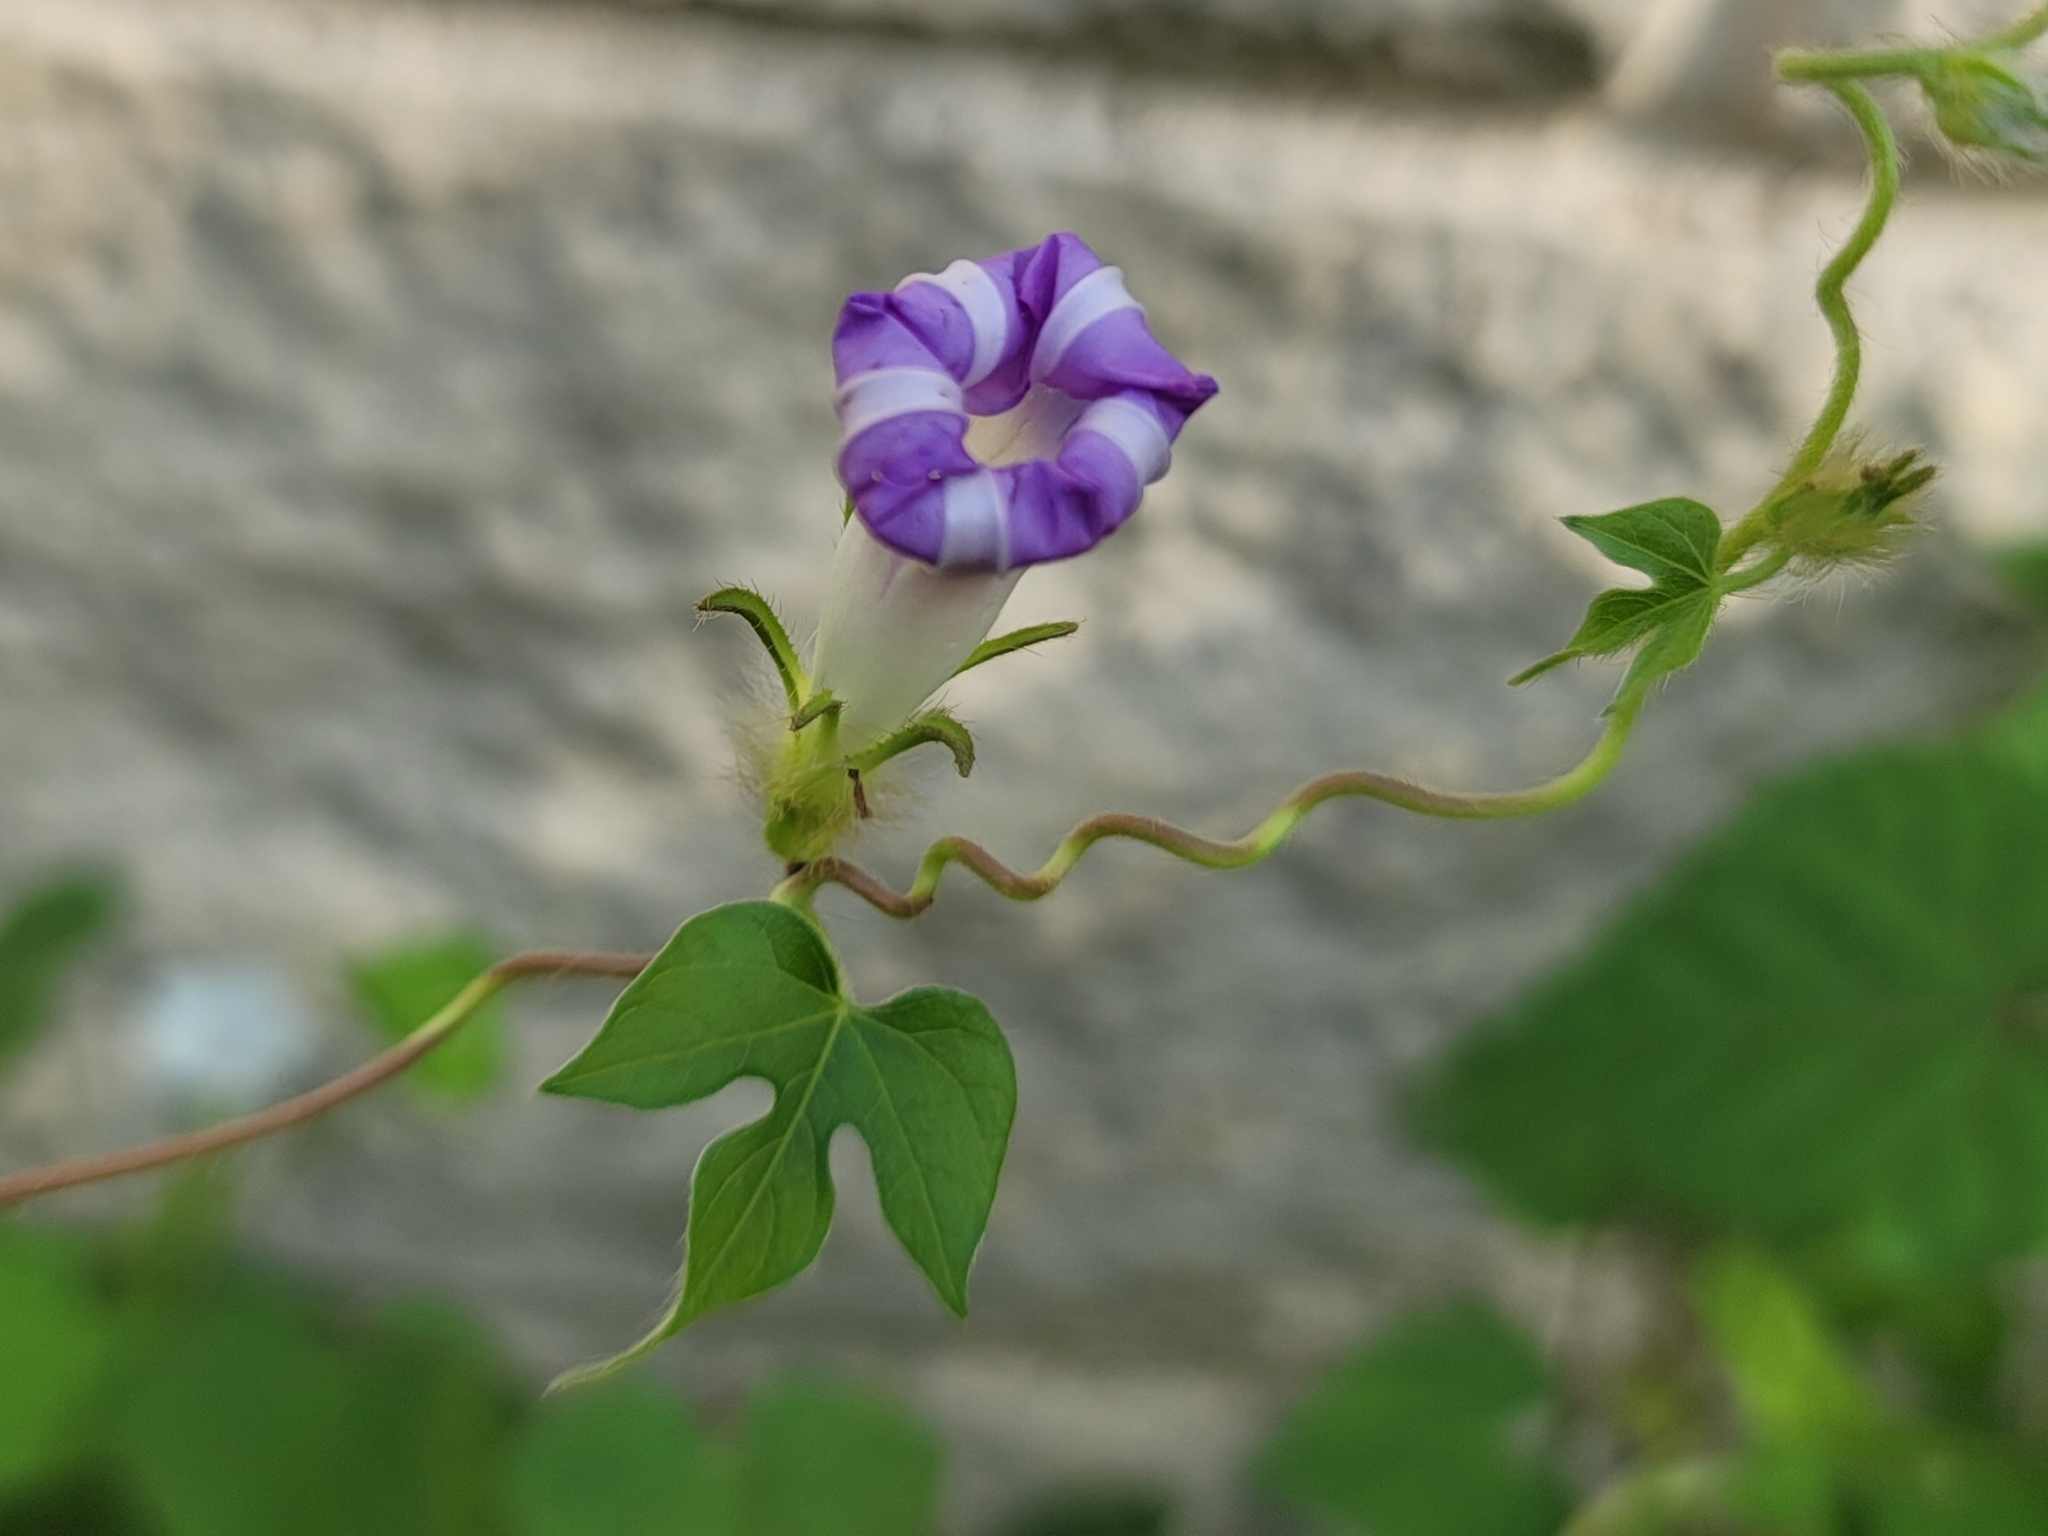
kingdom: Plantae
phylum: Tracheophyta
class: Magnoliopsida
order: Solanales
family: Convolvulaceae
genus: Ipomoea
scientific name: Ipomoea hederacea
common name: Ivy-leaved morning-glory
